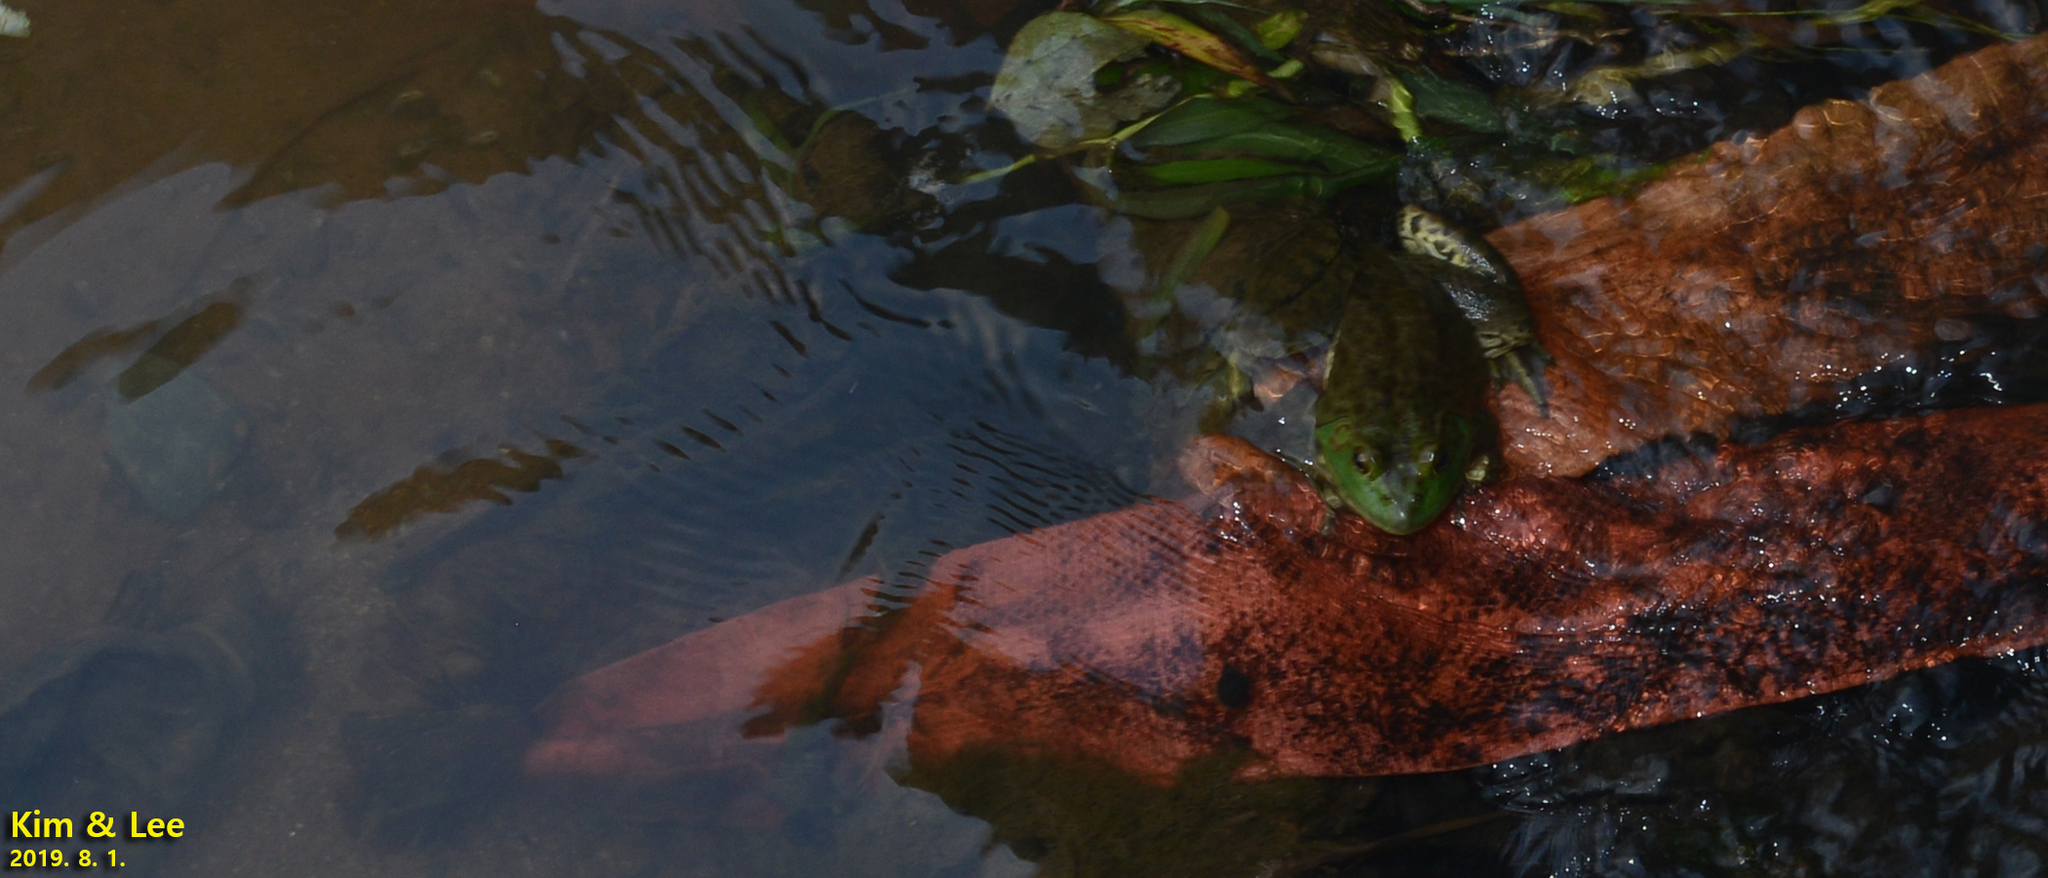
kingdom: Animalia
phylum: Chordata
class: Amphibia
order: Anura
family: Ranidae
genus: Lithobates
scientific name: Lithobates catesbeianus
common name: American bullfrog
